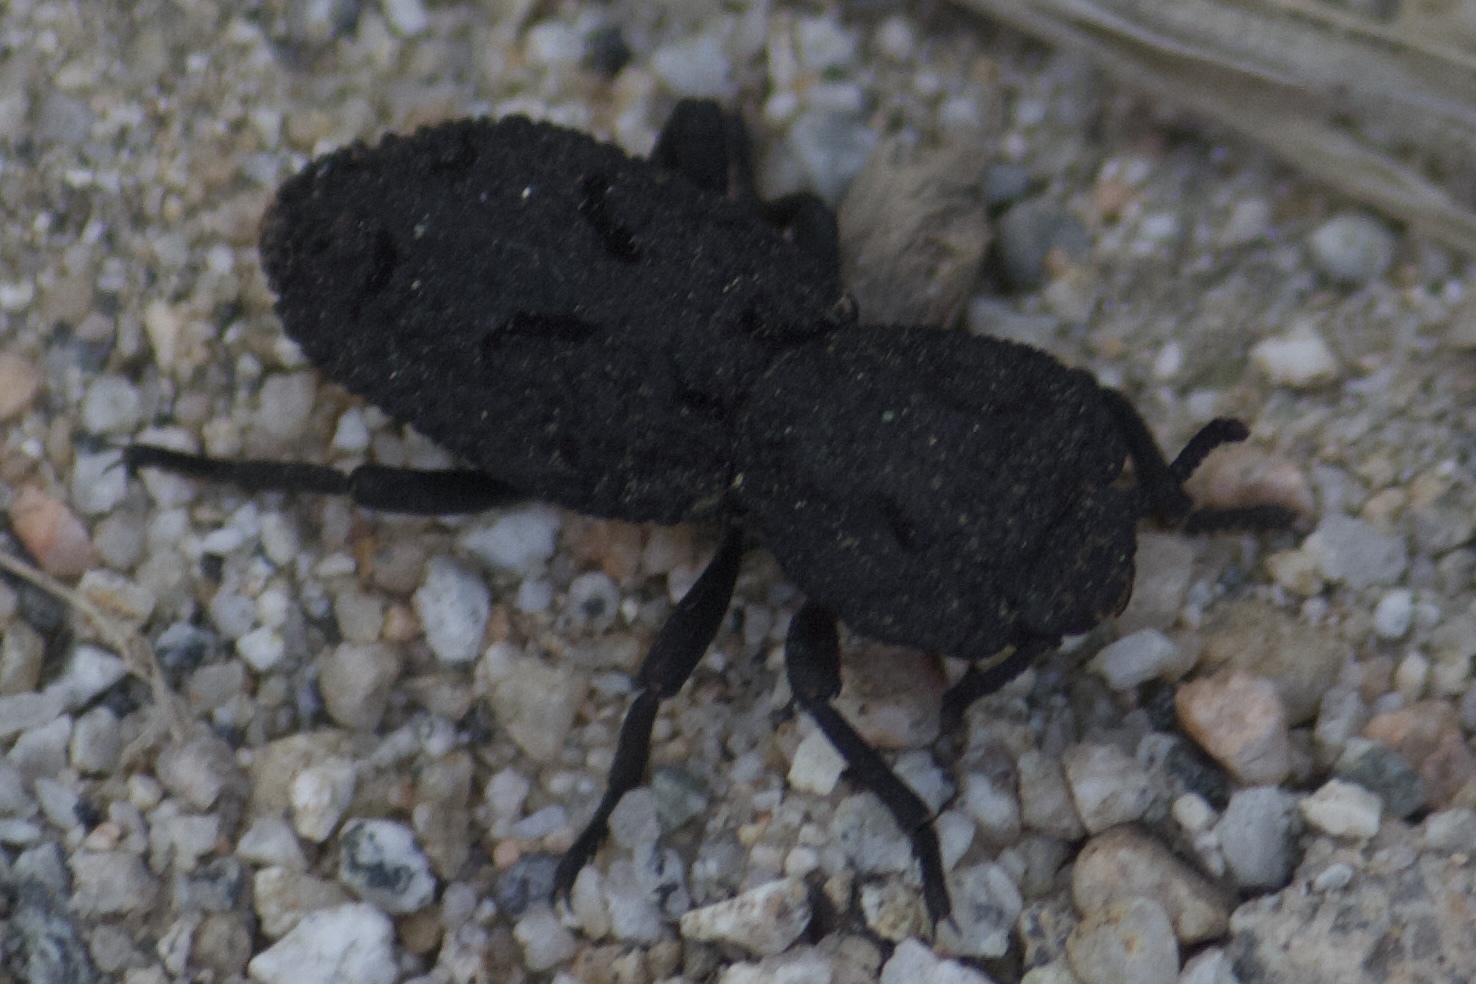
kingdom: Animalia
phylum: Arthropoda
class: Insecta
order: Coleoptera
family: Zopheridae
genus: Phloeodes
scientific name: Phloeodes diabolicus
